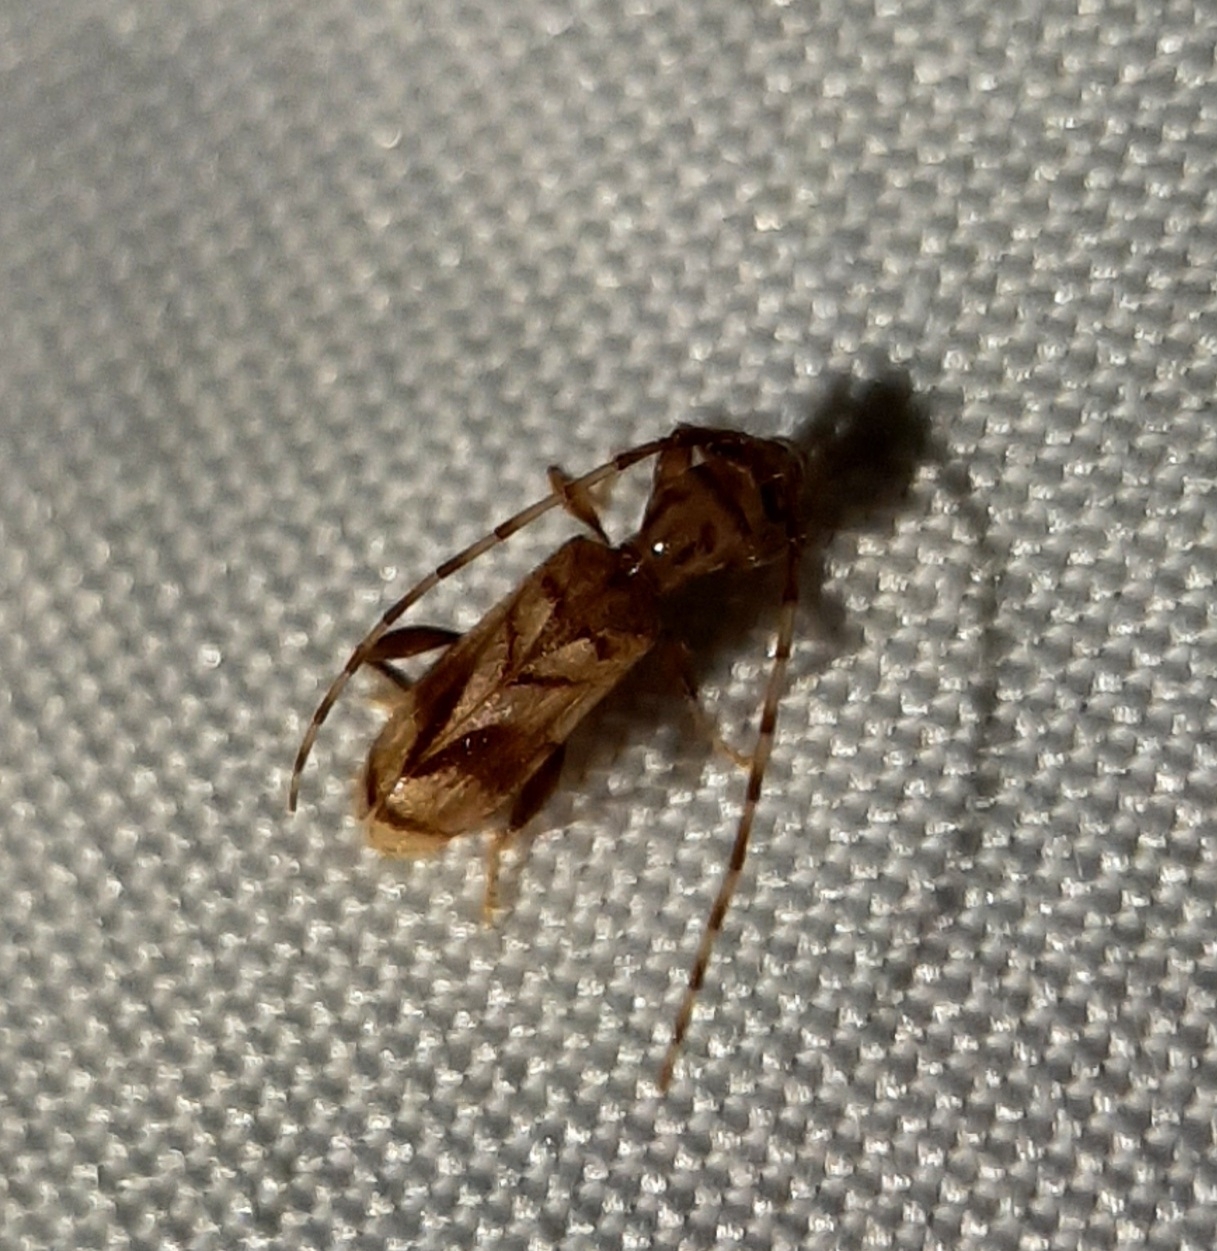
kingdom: Animalia
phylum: Arthropoda
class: Insecta
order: Coleoptera
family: Cerambycidae
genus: Obrium
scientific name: Obrium maculatum
